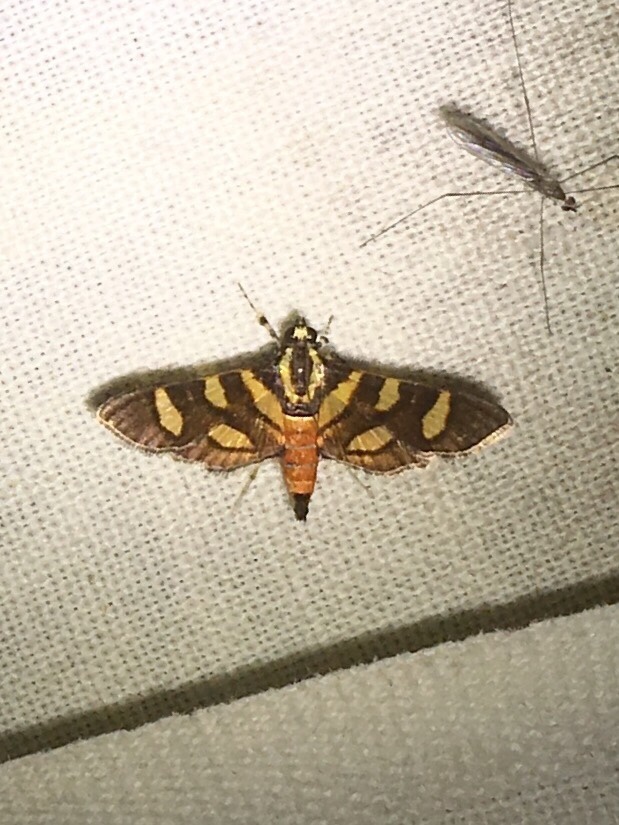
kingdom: Animalia
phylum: Arthropoda
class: Insecta
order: Lepidoptera
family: Crambidae
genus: Syngamia
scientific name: Syngamia florella
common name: Orange-spotted flower moth
